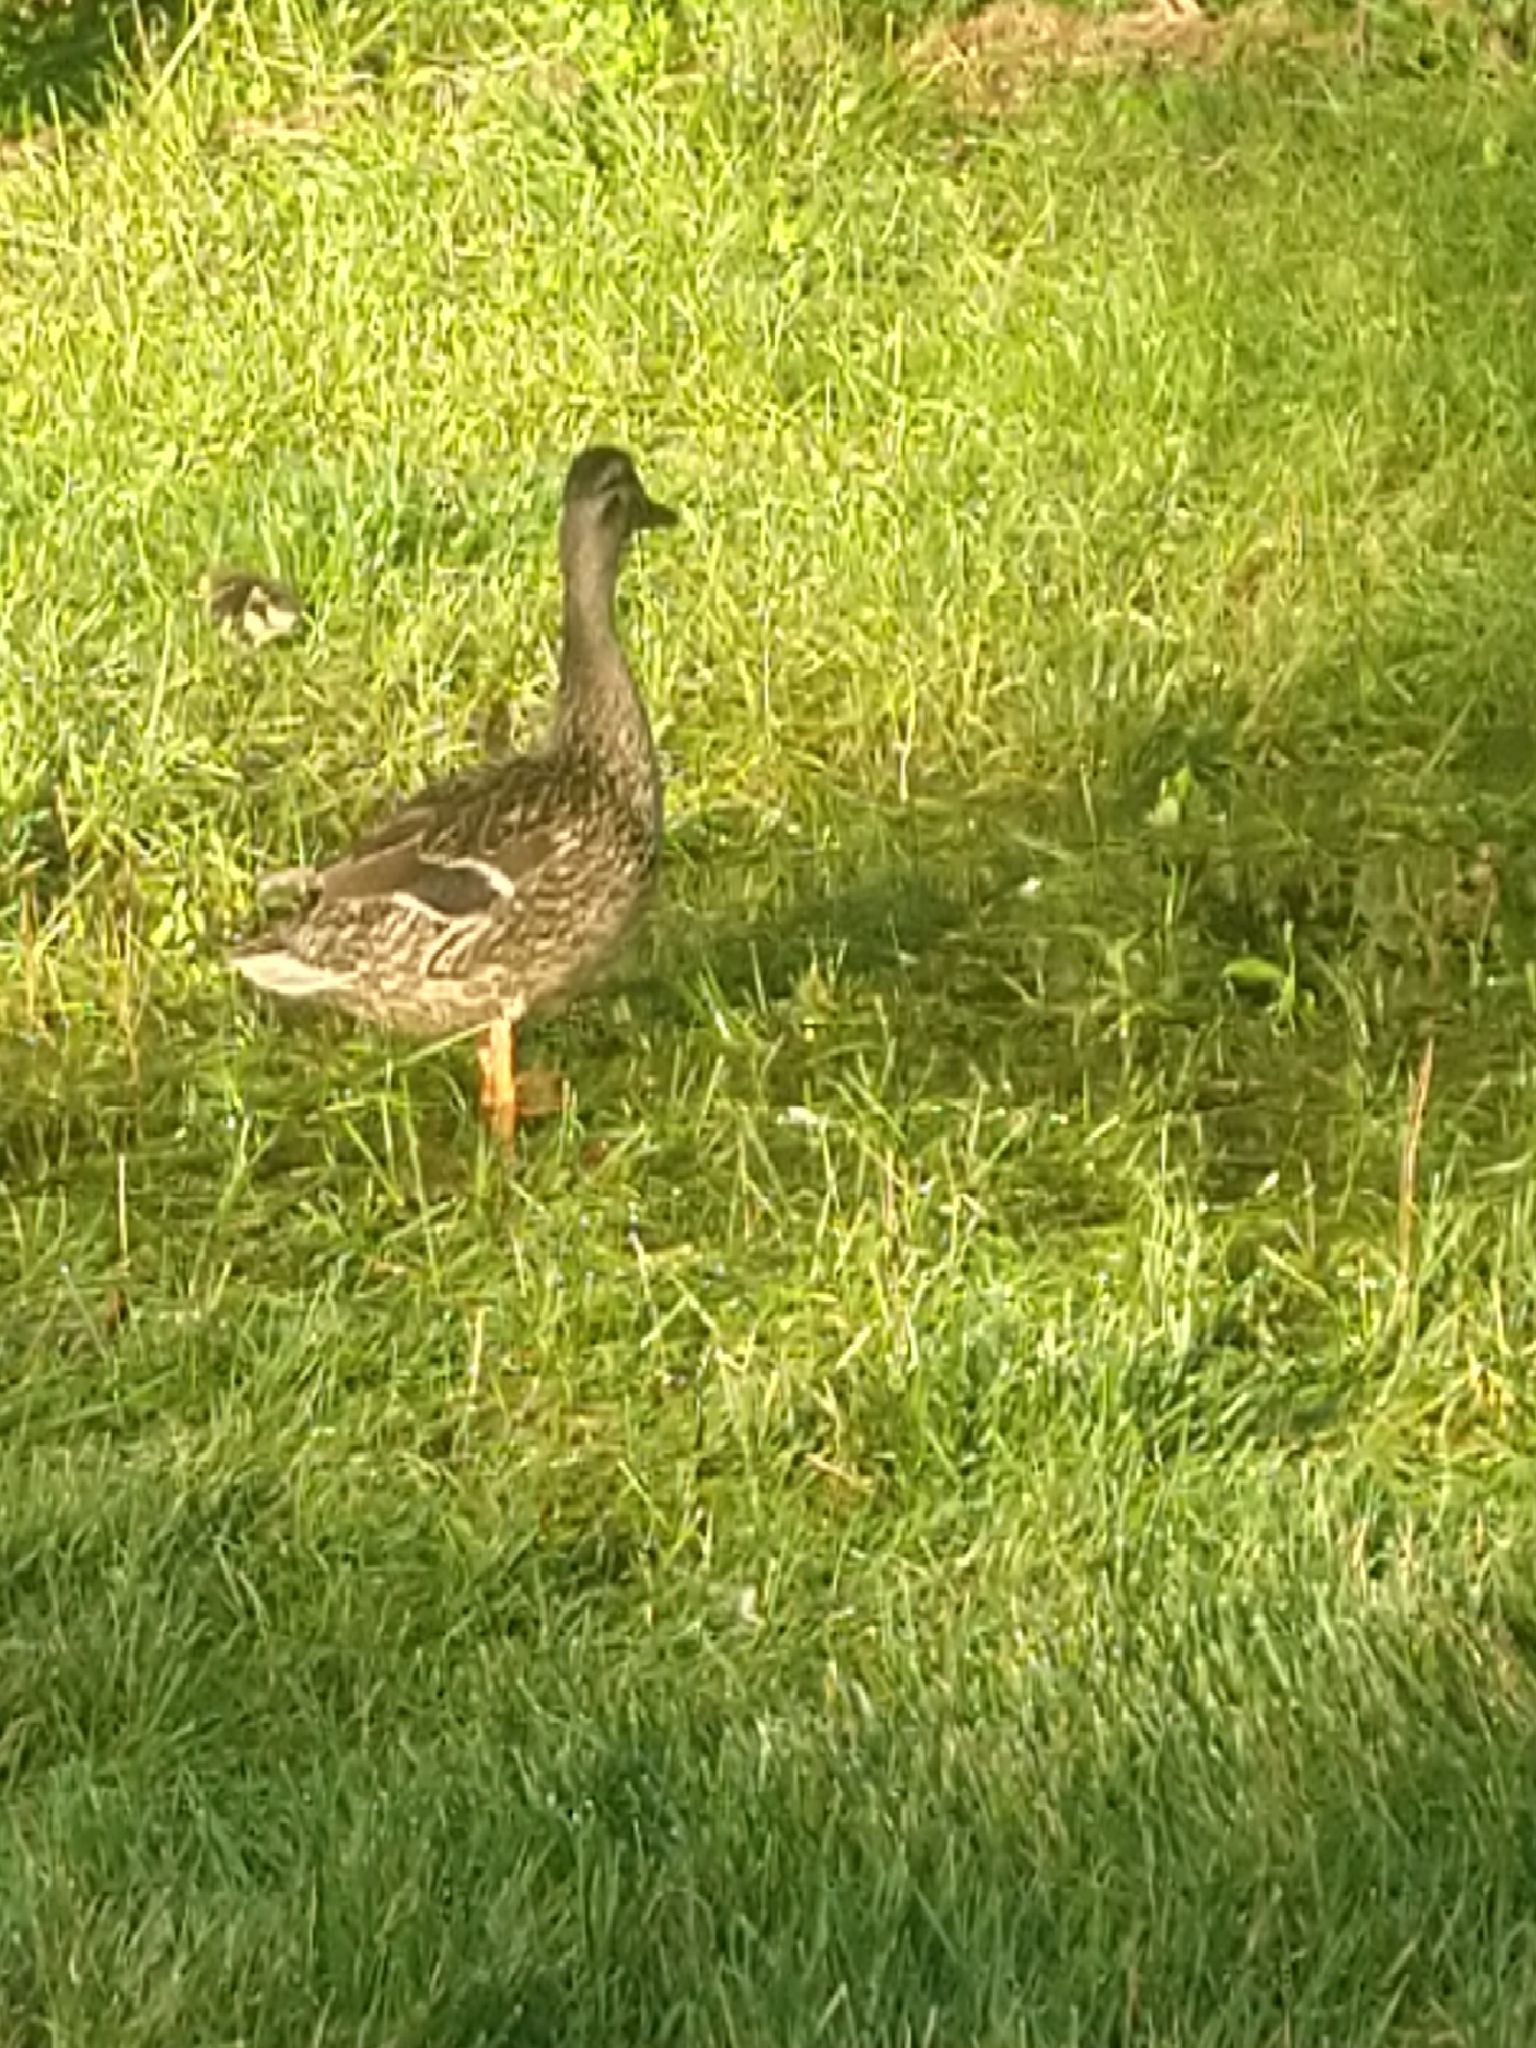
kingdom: Animalia
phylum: Chordata
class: Aves
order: Anseriformes
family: Anatidae
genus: Anas
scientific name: Anas platyrhynchos
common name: Mallard
